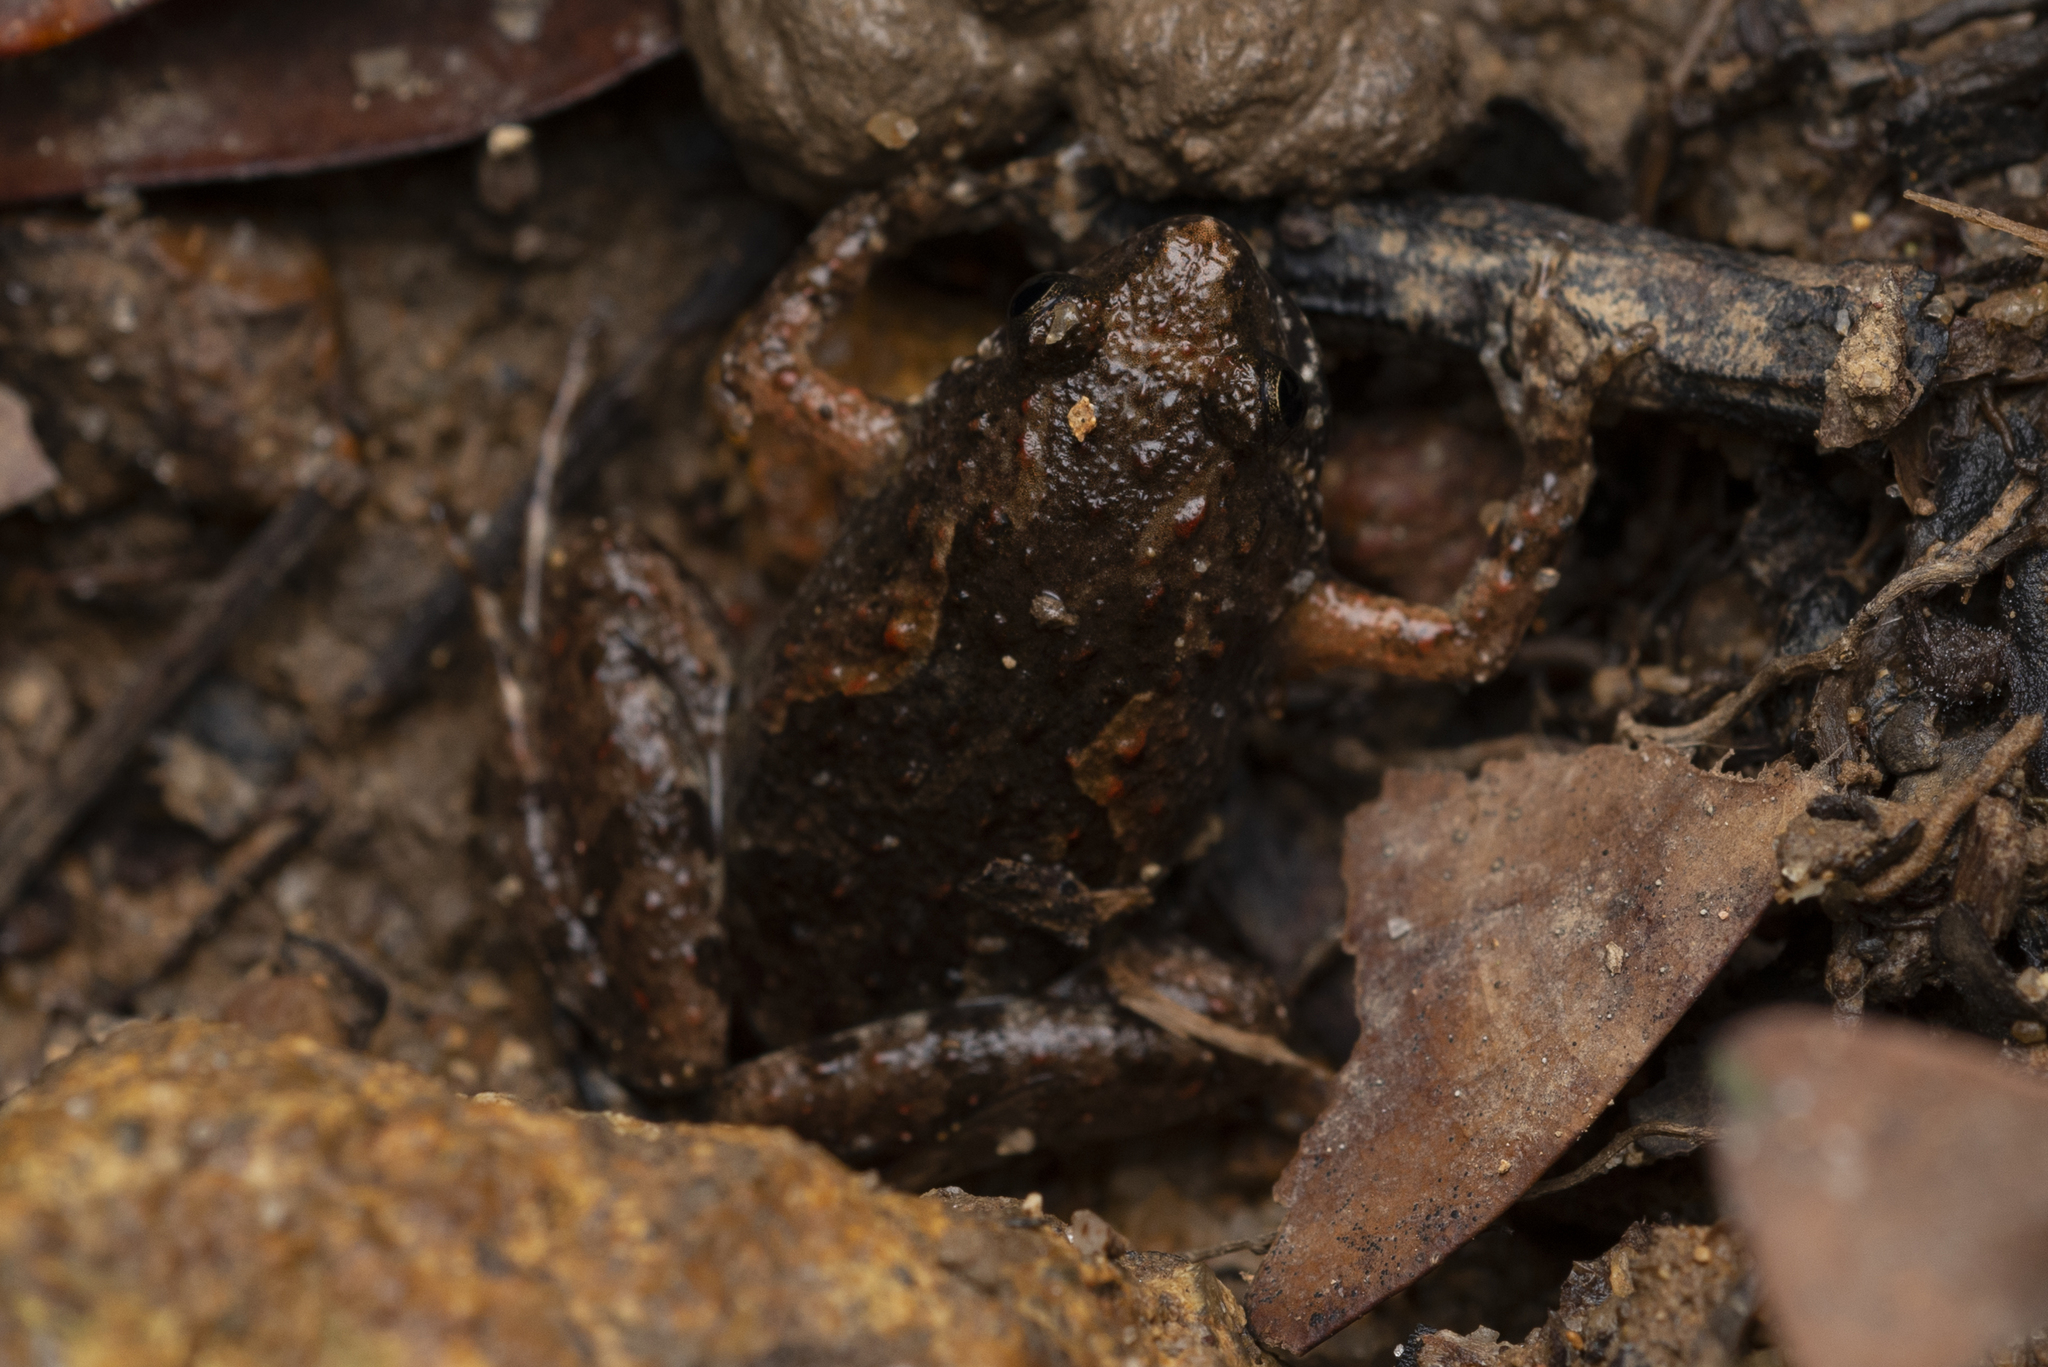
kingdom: Animalia
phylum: Chordata
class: Amphibia
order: Anura
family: Microhylidae
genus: Microhyla
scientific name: Microhyla butleri
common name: Butler’s rice frog,painted chorus frog,tubercled pygmy frog
